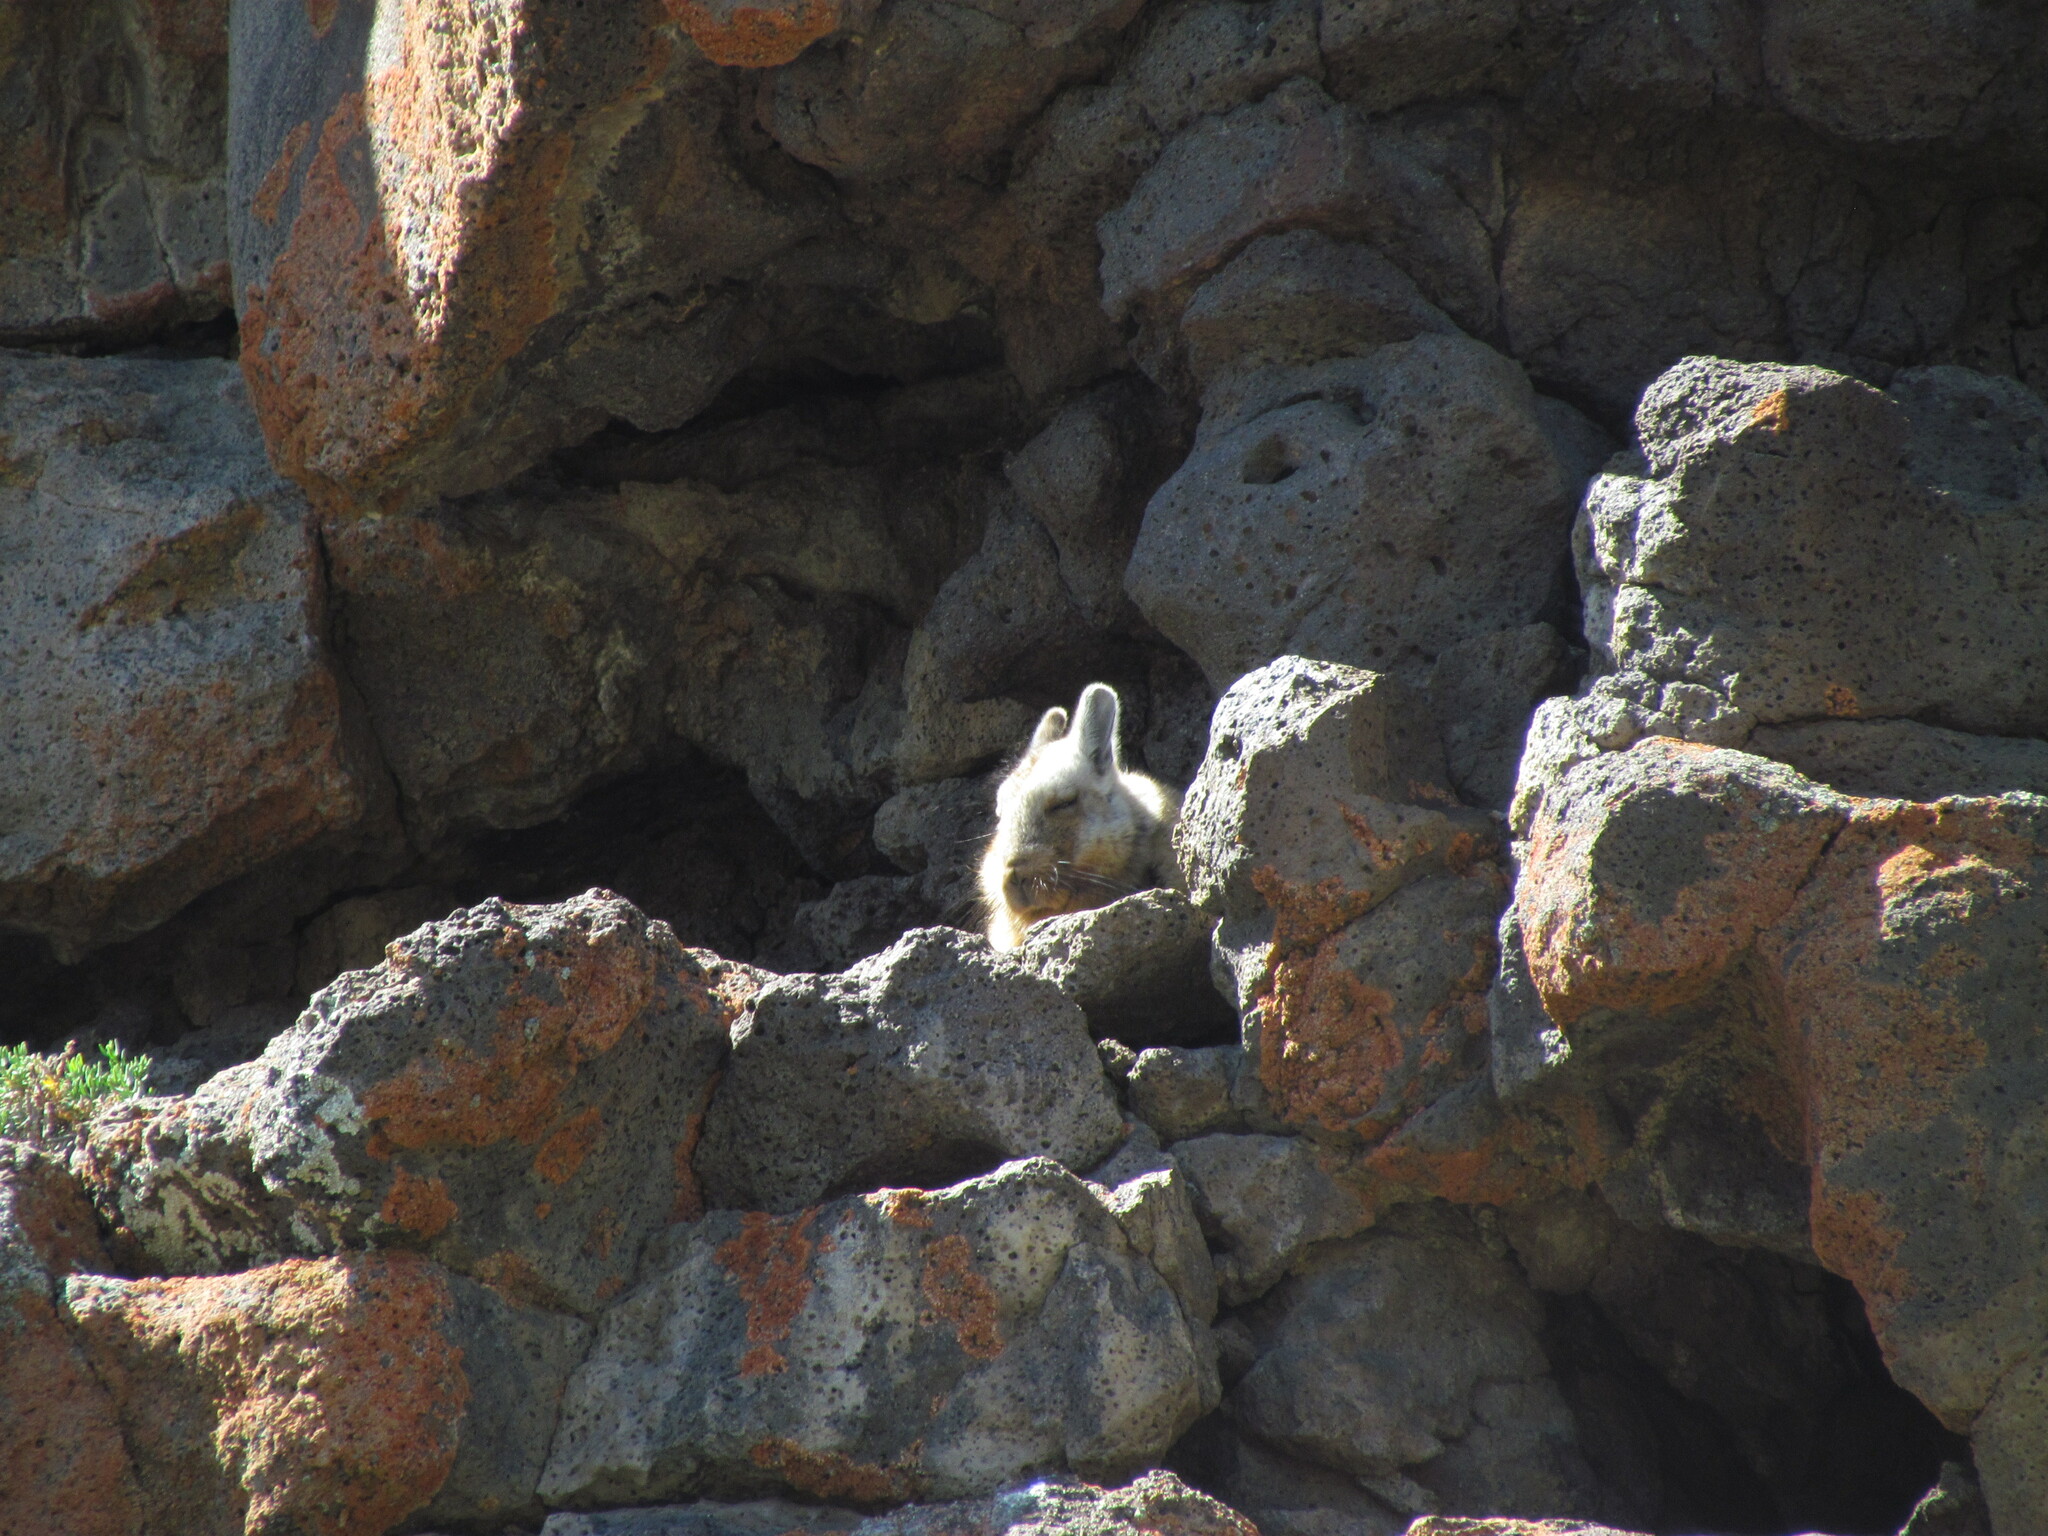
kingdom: Animalia
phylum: Chordata
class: Mammalia
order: Rodentia
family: Chinchillidae
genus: Lagidium
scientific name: Lagidium wolffsohni
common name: Wolffsohn's viscacha
